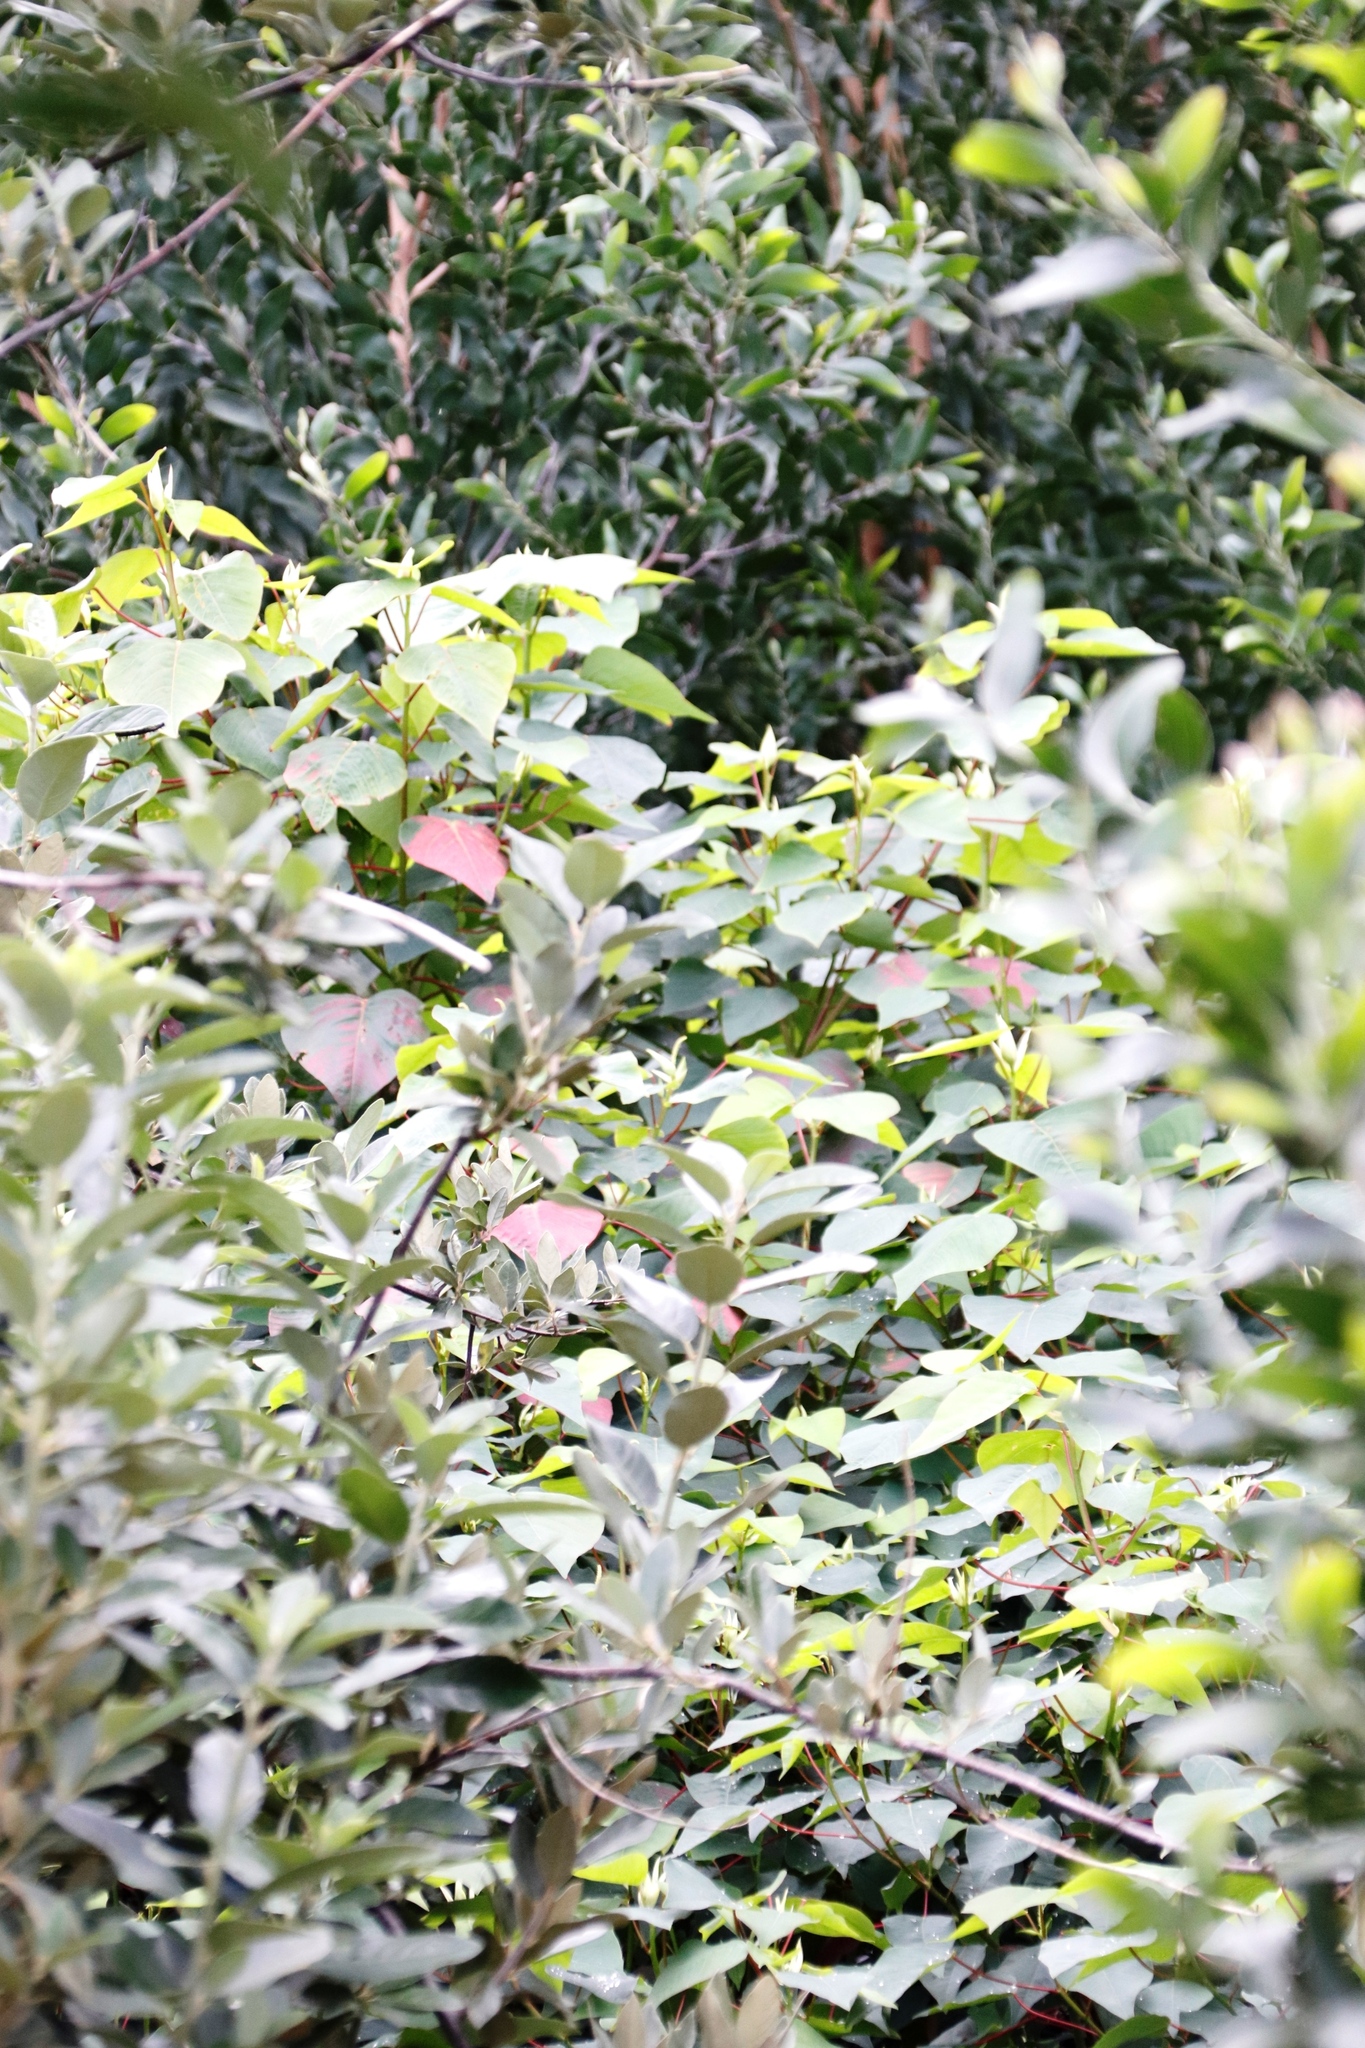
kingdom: Plantae
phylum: Tracheophyta
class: Magnoliopsida
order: Malpighiales
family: Euphorbiaceae
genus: Homalanthus
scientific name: Homalanthus populifolius
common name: Queensland poplar
